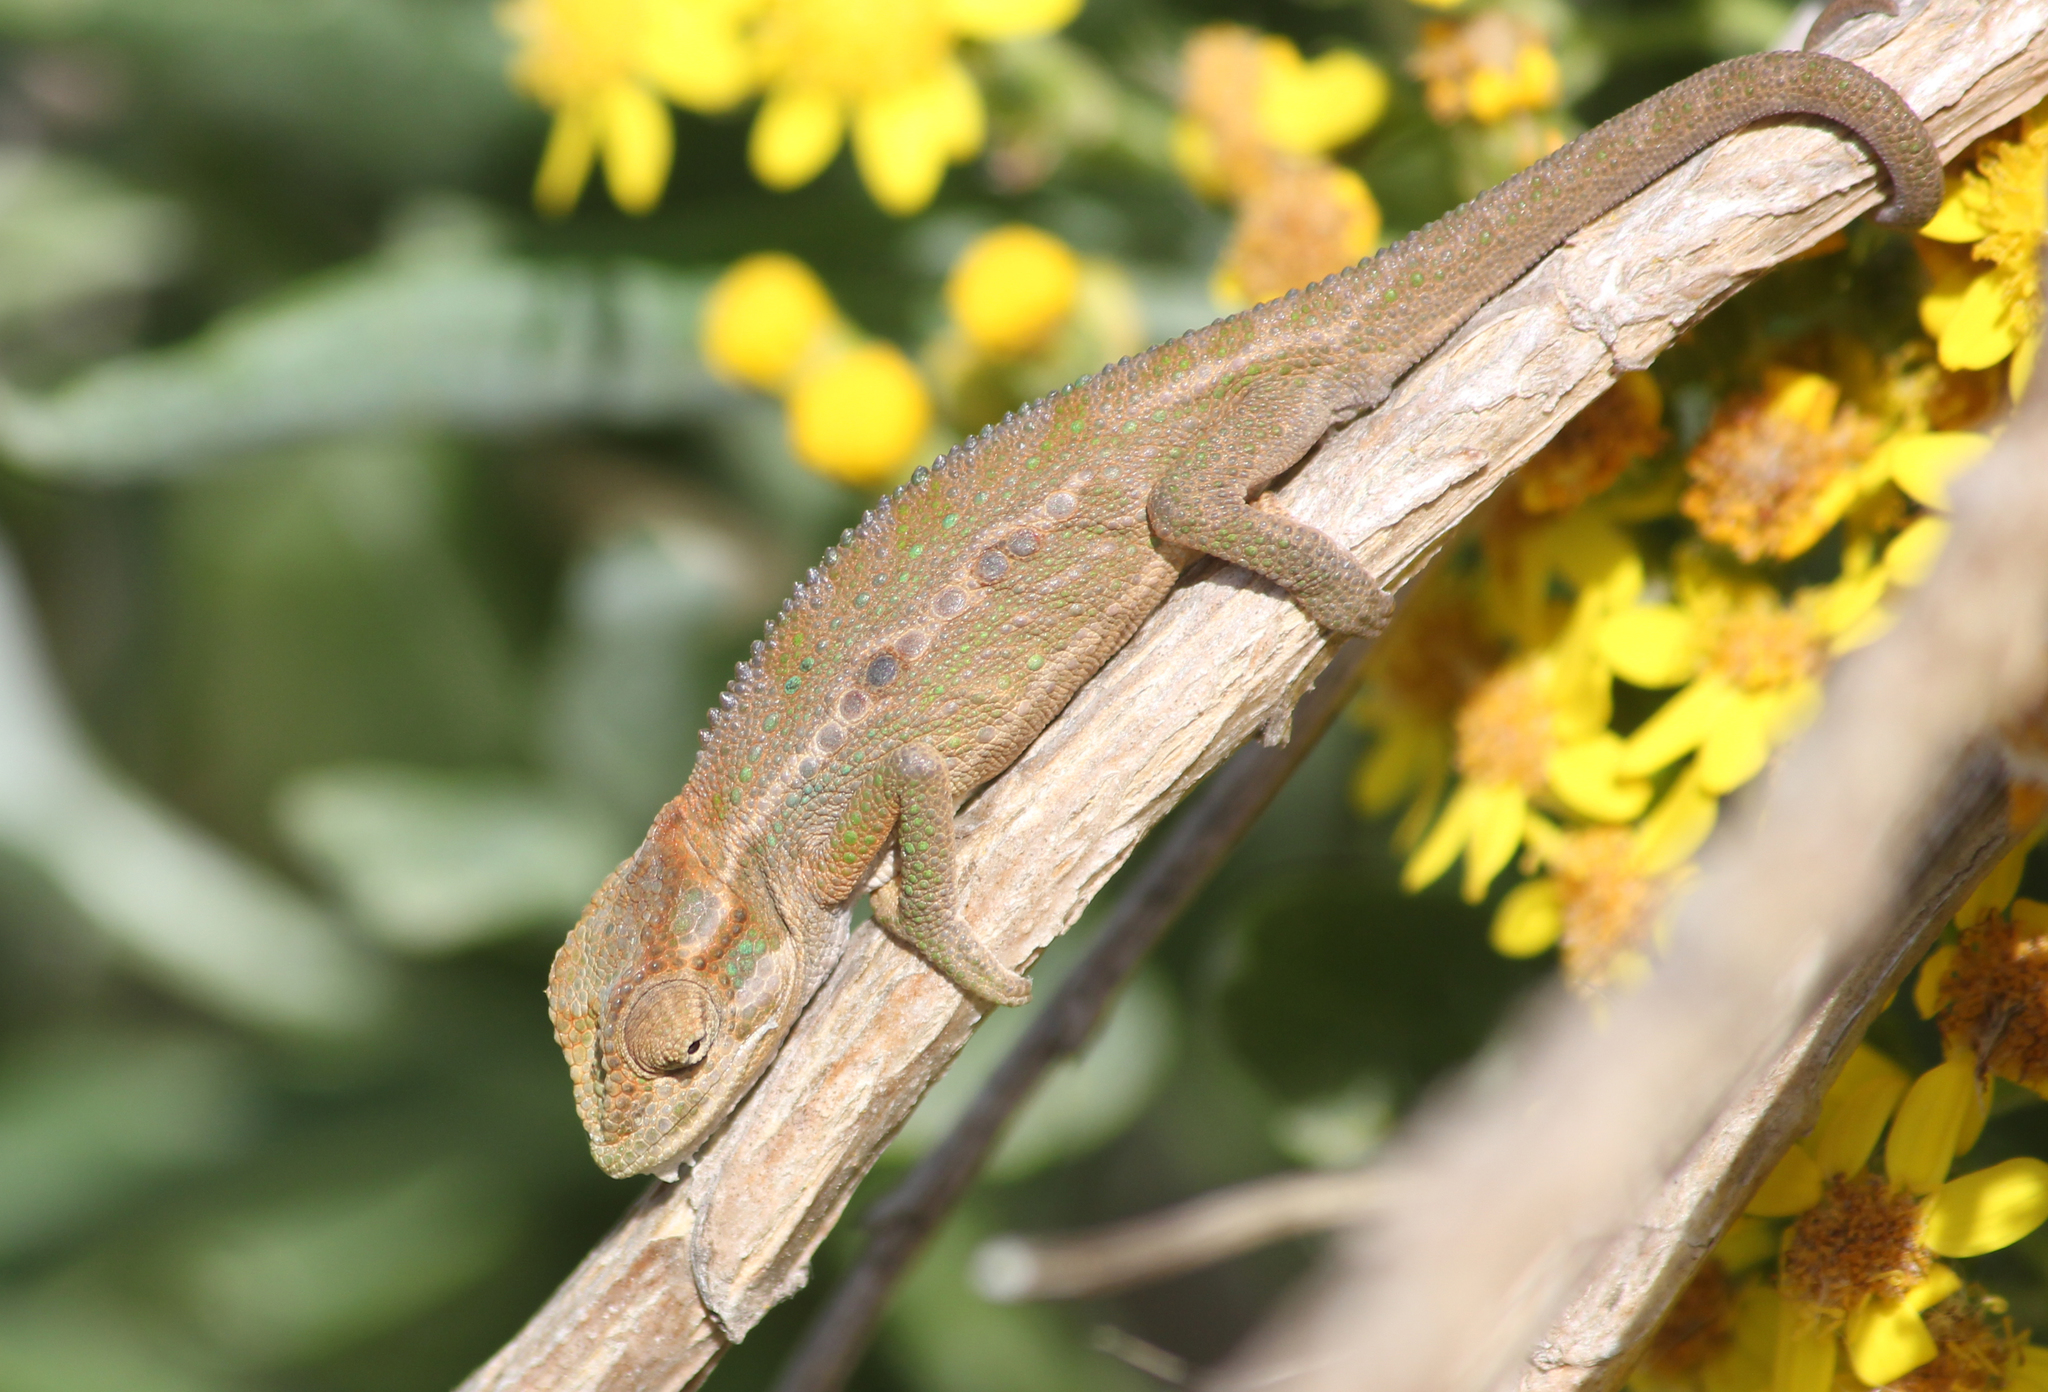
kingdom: Animalia
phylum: Chordata
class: Squamata
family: Chamaeleonidae
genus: Bradypodion
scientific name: Bradypodion pumilum
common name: Cape dwarf chameleon
